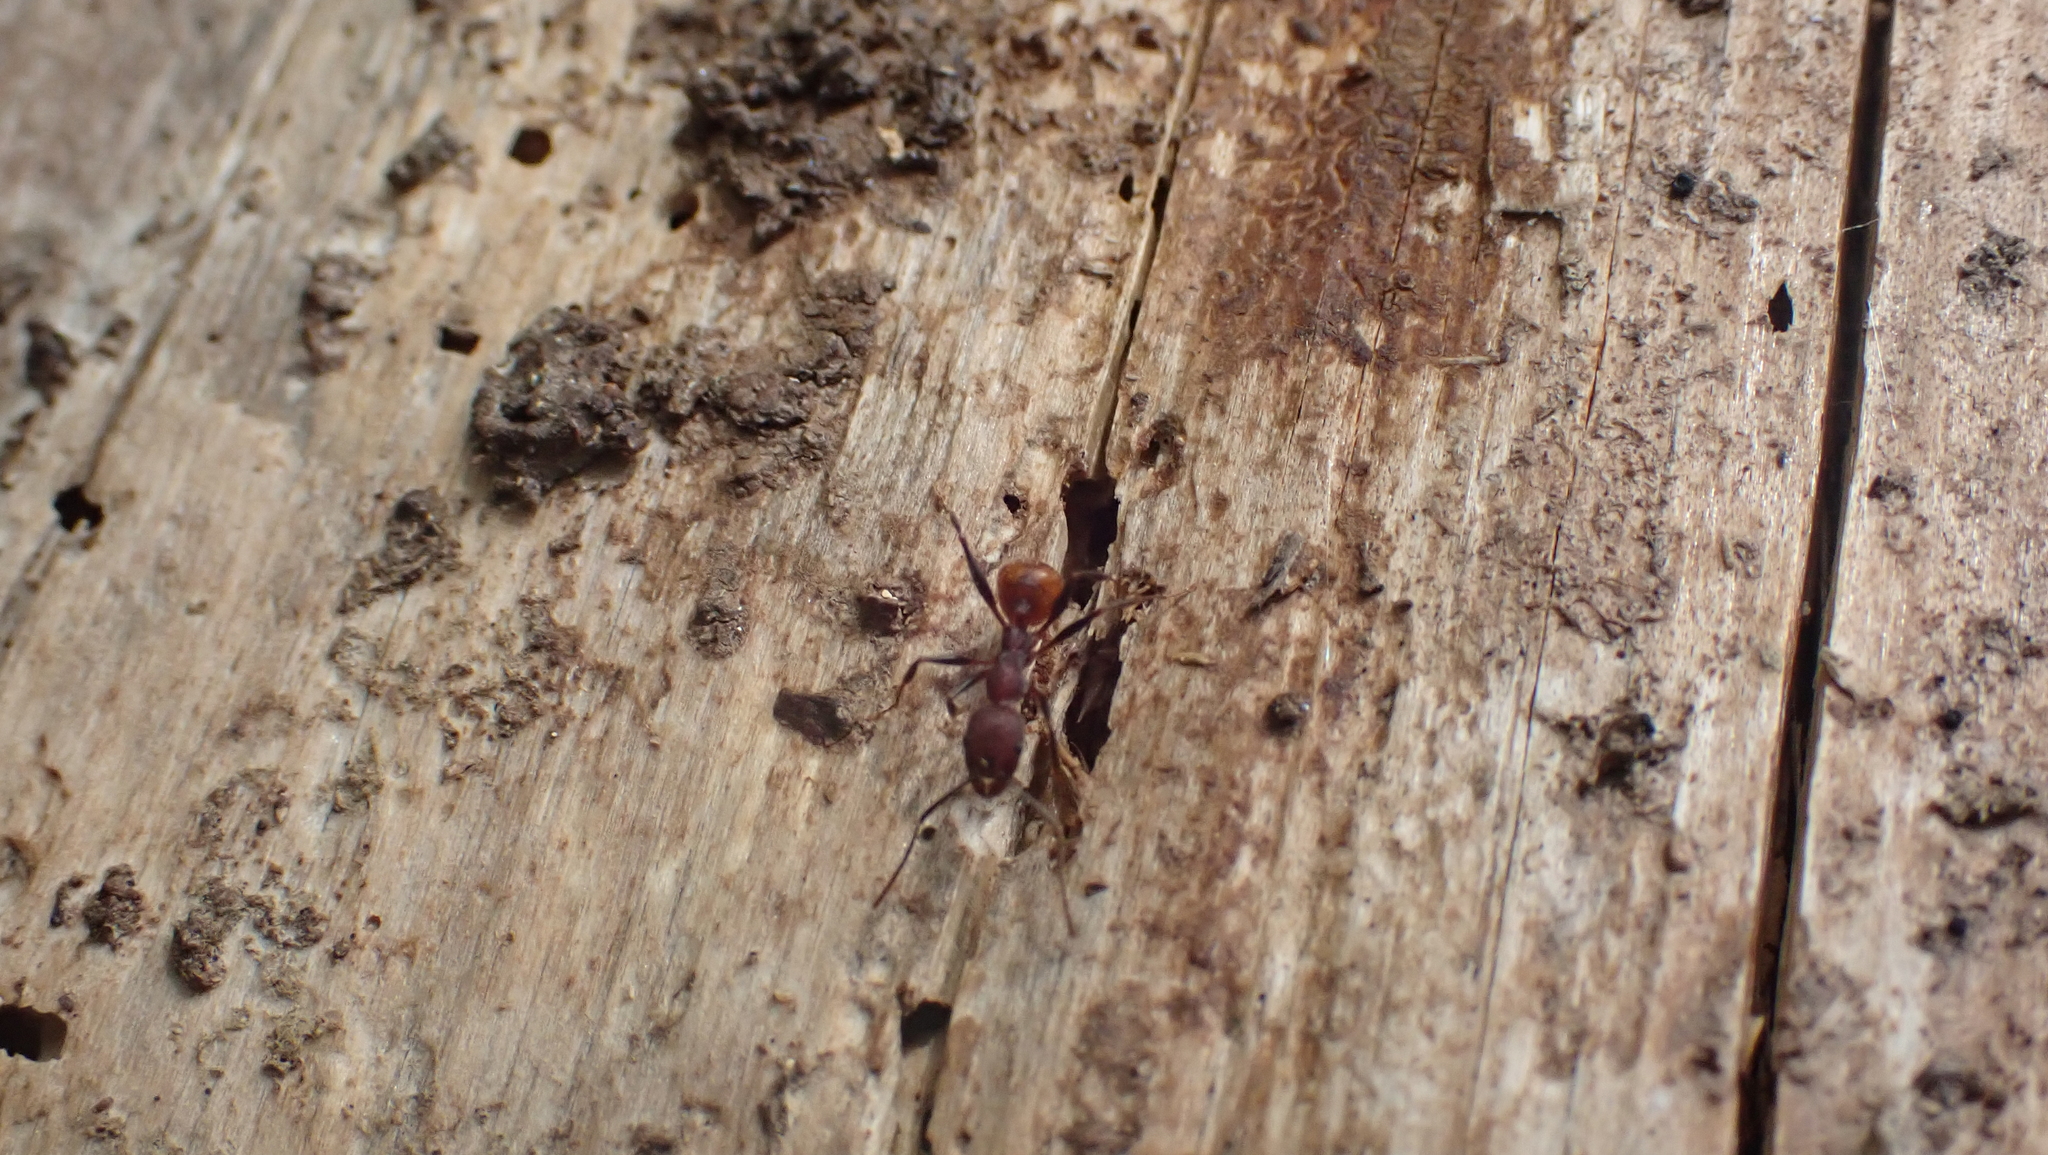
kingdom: Animalia
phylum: Arthropoda
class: Insecta
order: Hymenoptera
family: Formicidae
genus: Aphaenogaster
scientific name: Aphaenogaster lamellidens
